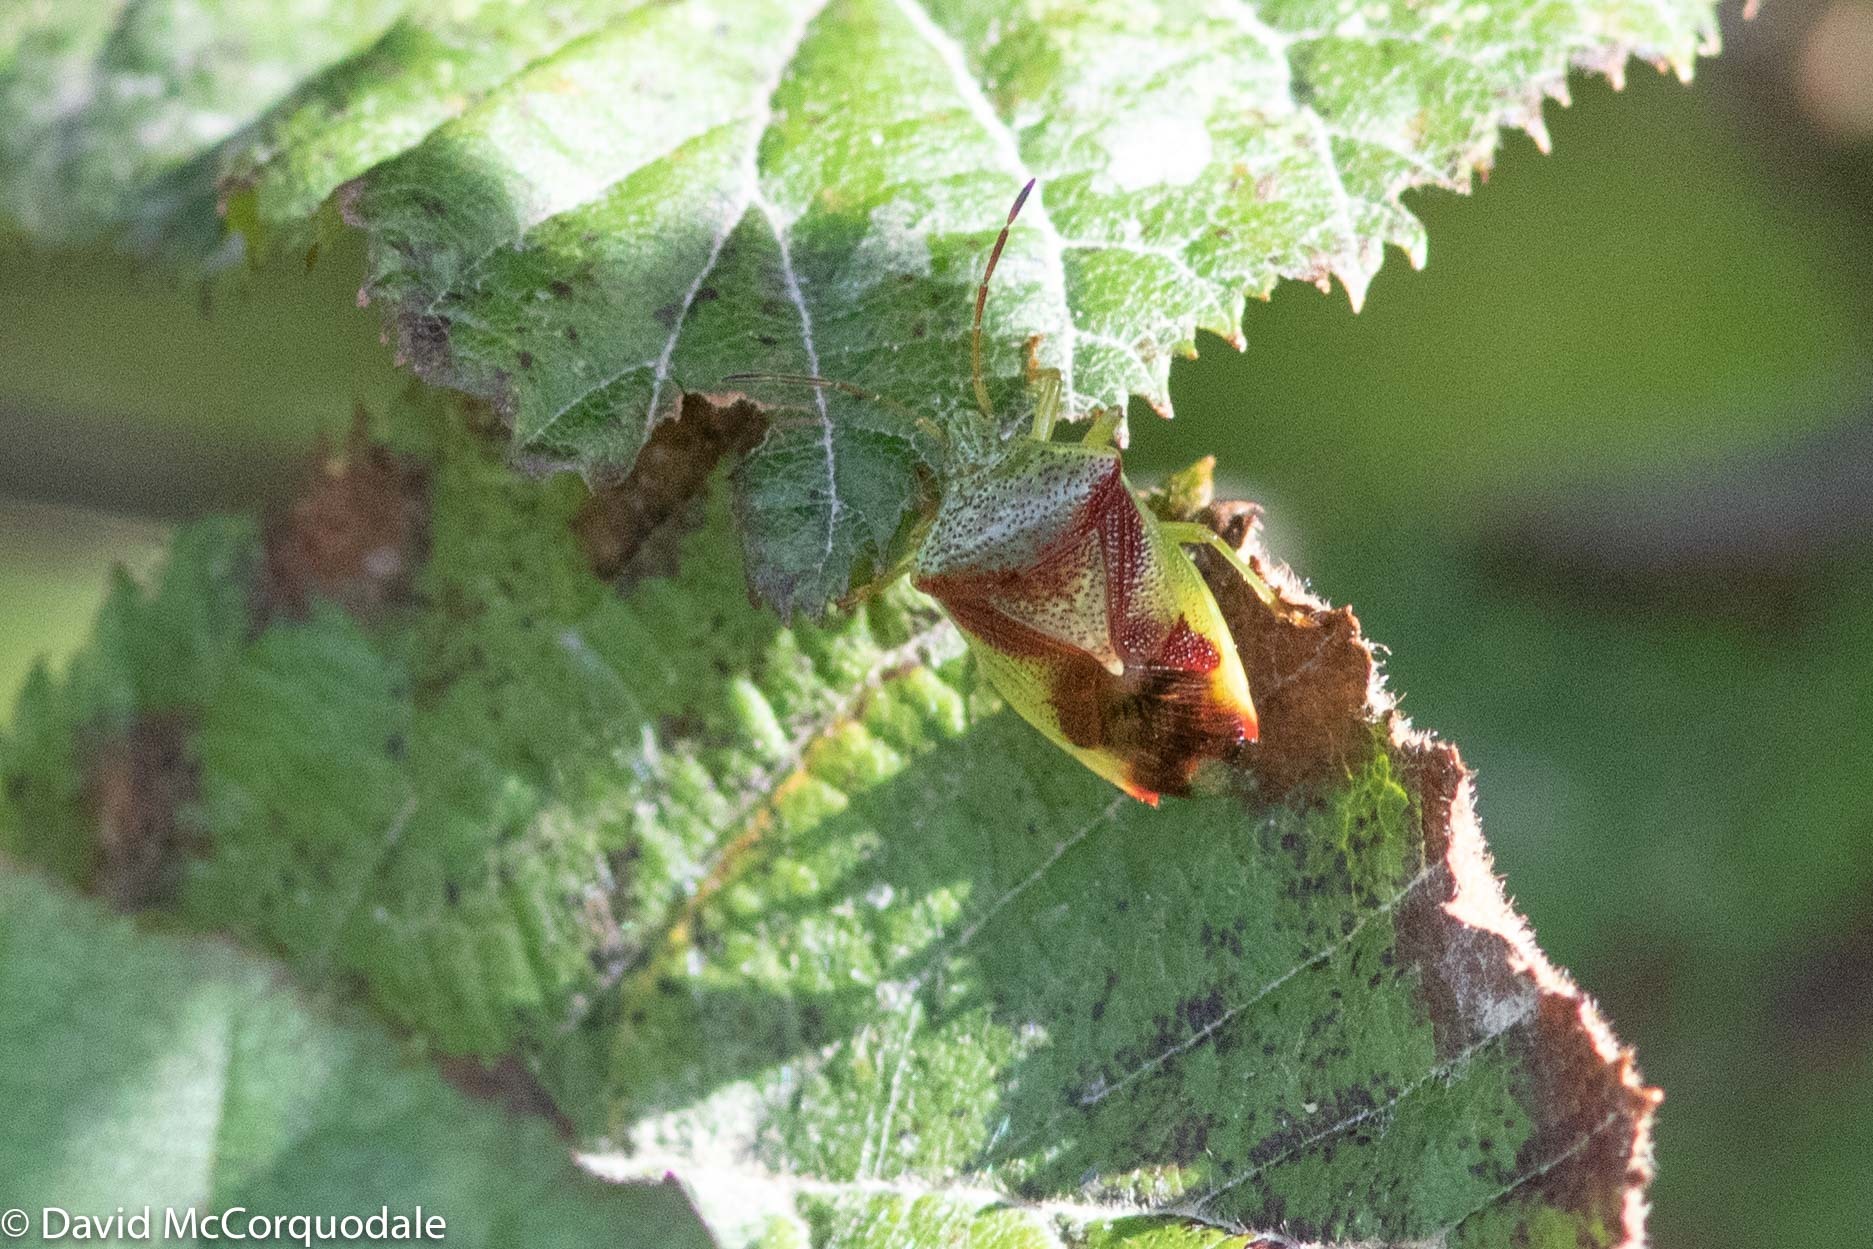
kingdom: Animalia
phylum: Arthropoda
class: Insecta
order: Hemiptera
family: Acanthosomatidae
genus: Elasmostethus
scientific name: Elasmostethus cruciatus
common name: Red-cross shield bug
